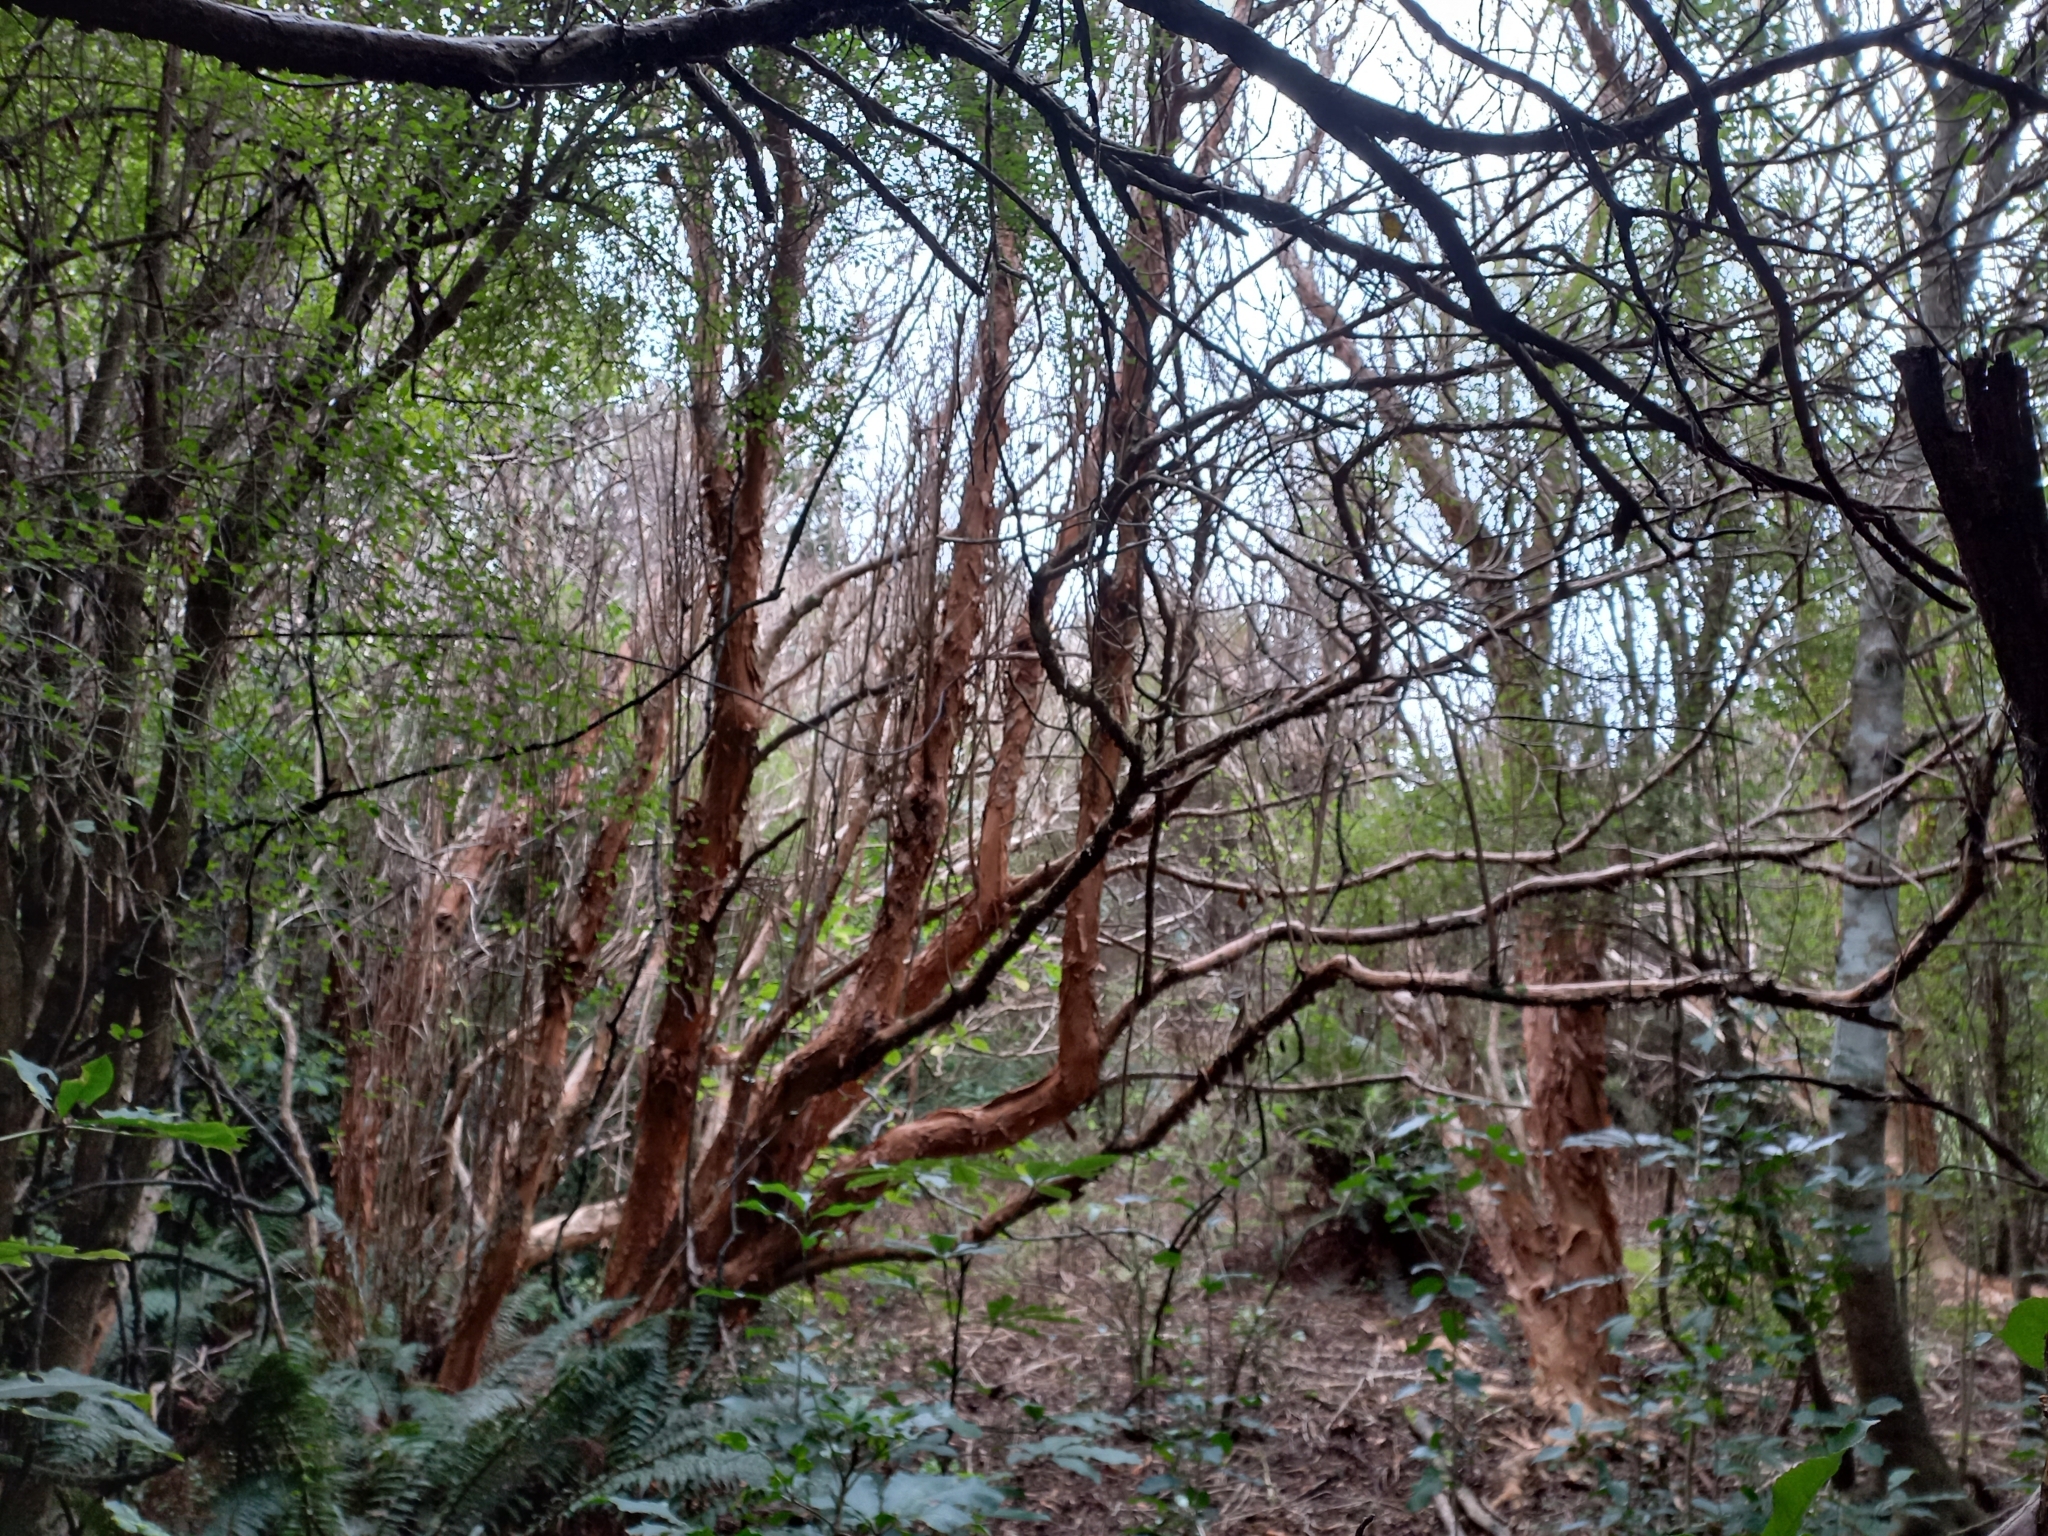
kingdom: Plantae
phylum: Tracheophyta
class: Magnoliopsida
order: Myrtales
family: Onagraceae
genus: Fuchsia
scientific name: Fuchsia excorticata
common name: Tree fuchsia
